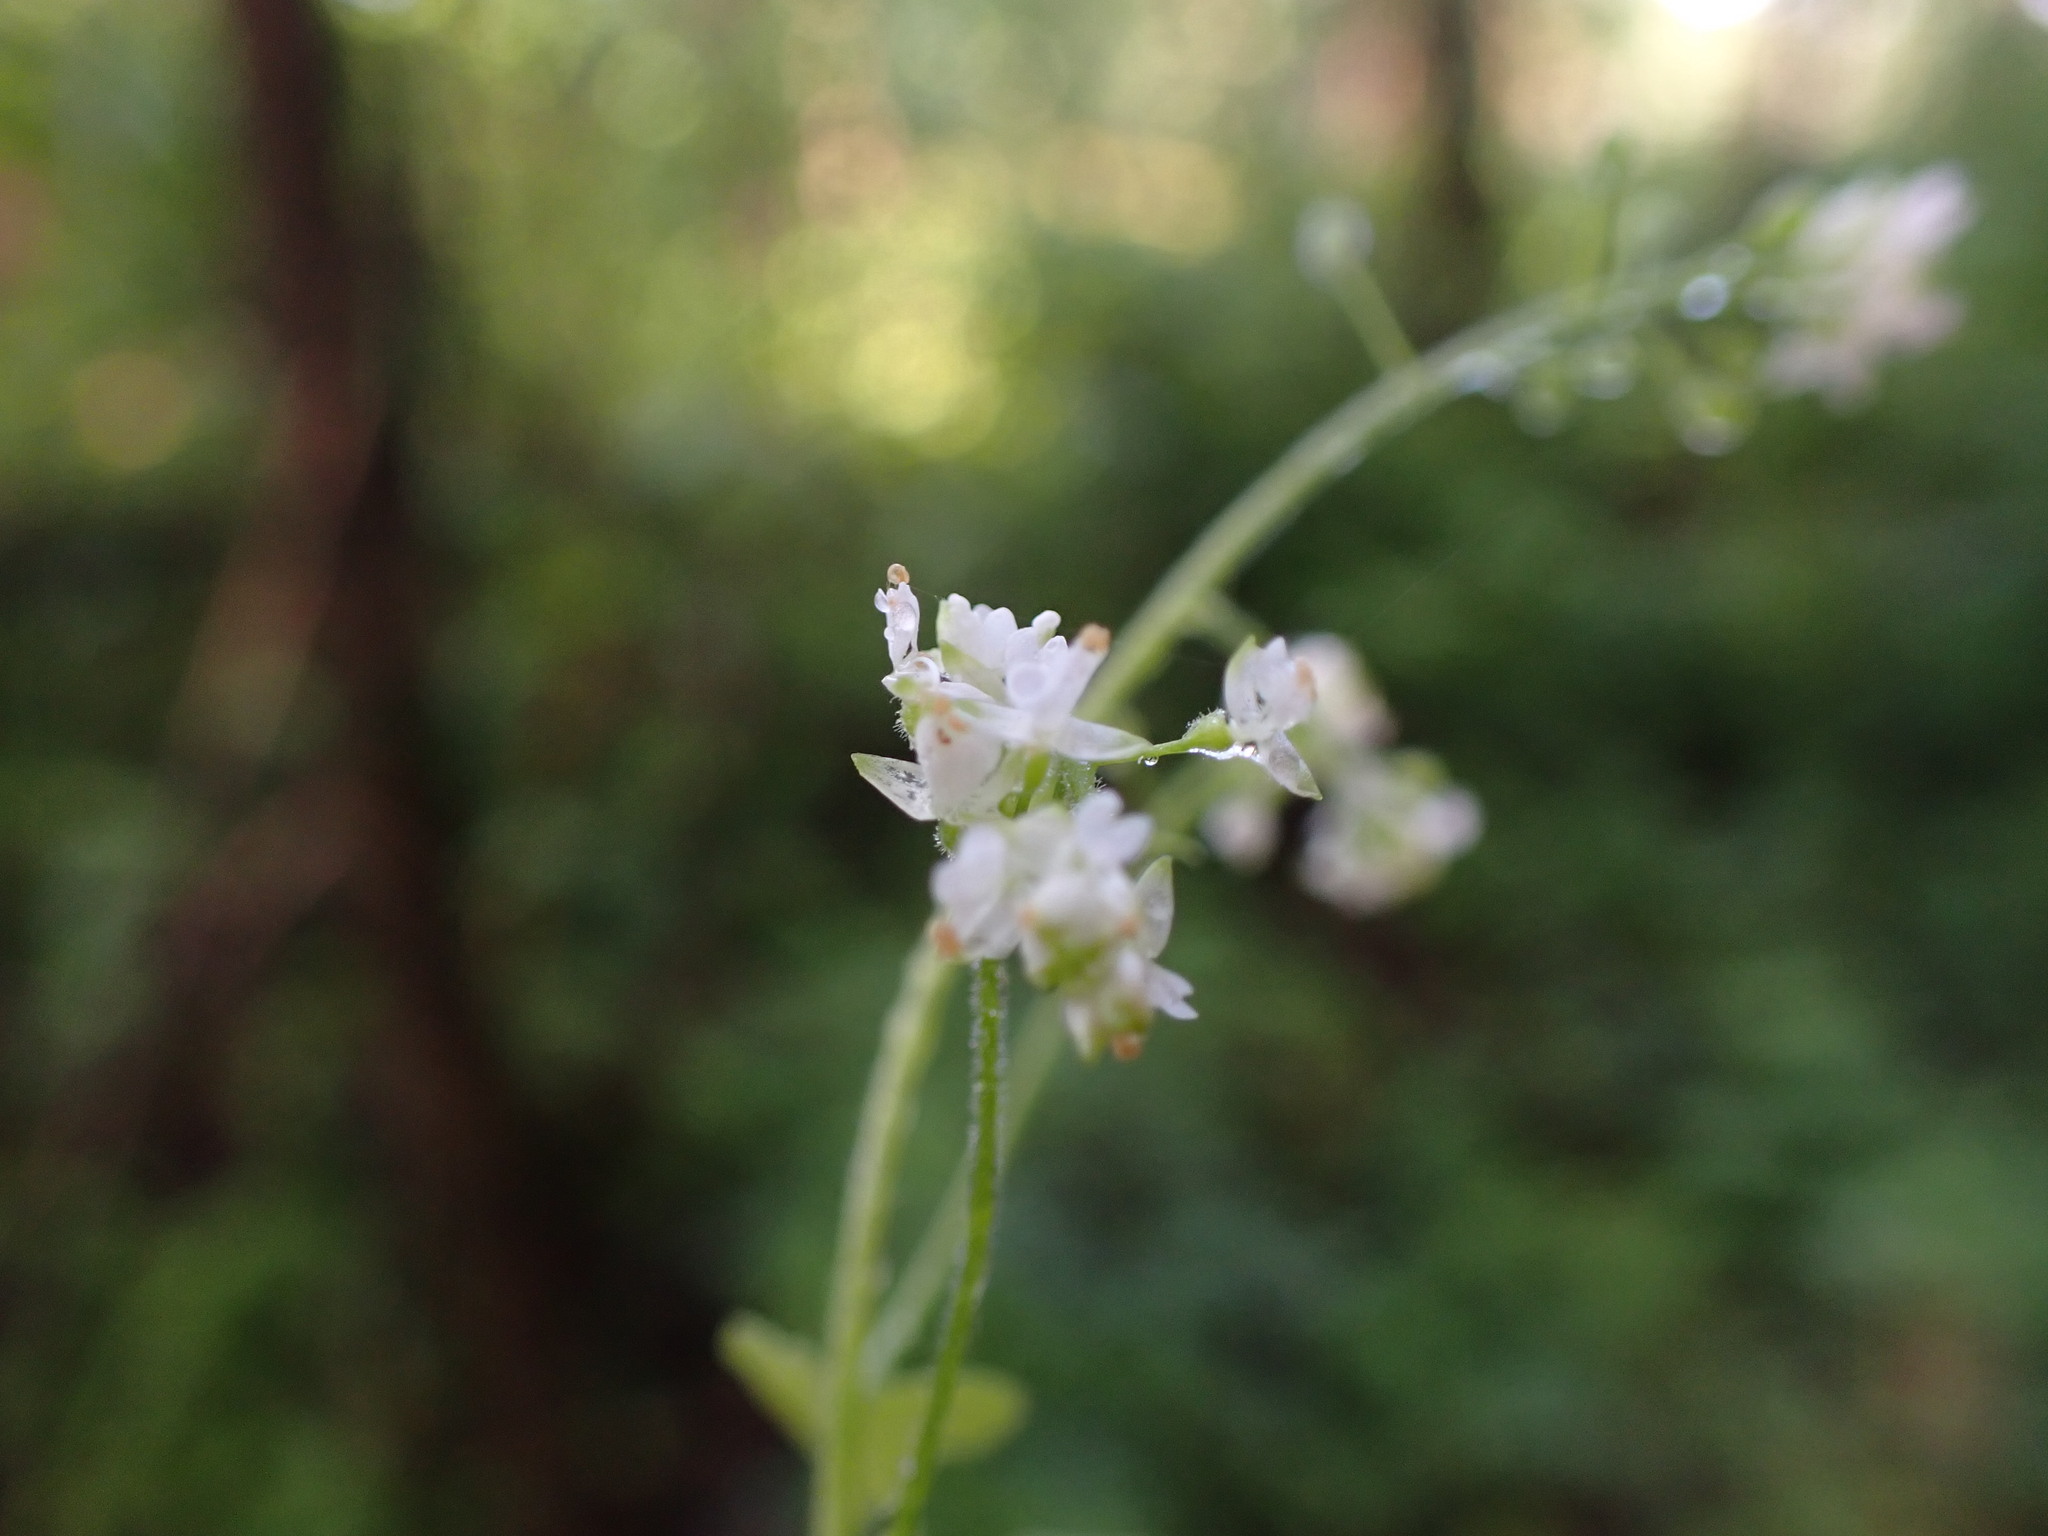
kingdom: Plantae
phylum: Tracheophyta
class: Magnoliopsida
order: Myrtales
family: Onagraceae
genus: Circaea
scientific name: Circaea alpina
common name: Alpine enchanter's-nightshade
